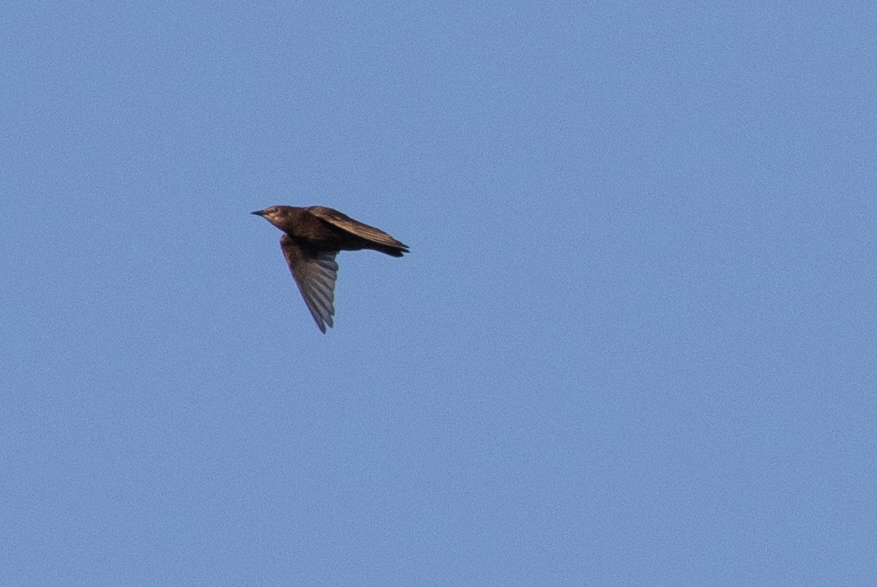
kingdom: Animalia
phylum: Chordata
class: Aves
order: Passeriformes
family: Sturnidae
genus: Sturnus
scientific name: Sturnus vulgaris
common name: Common starling
